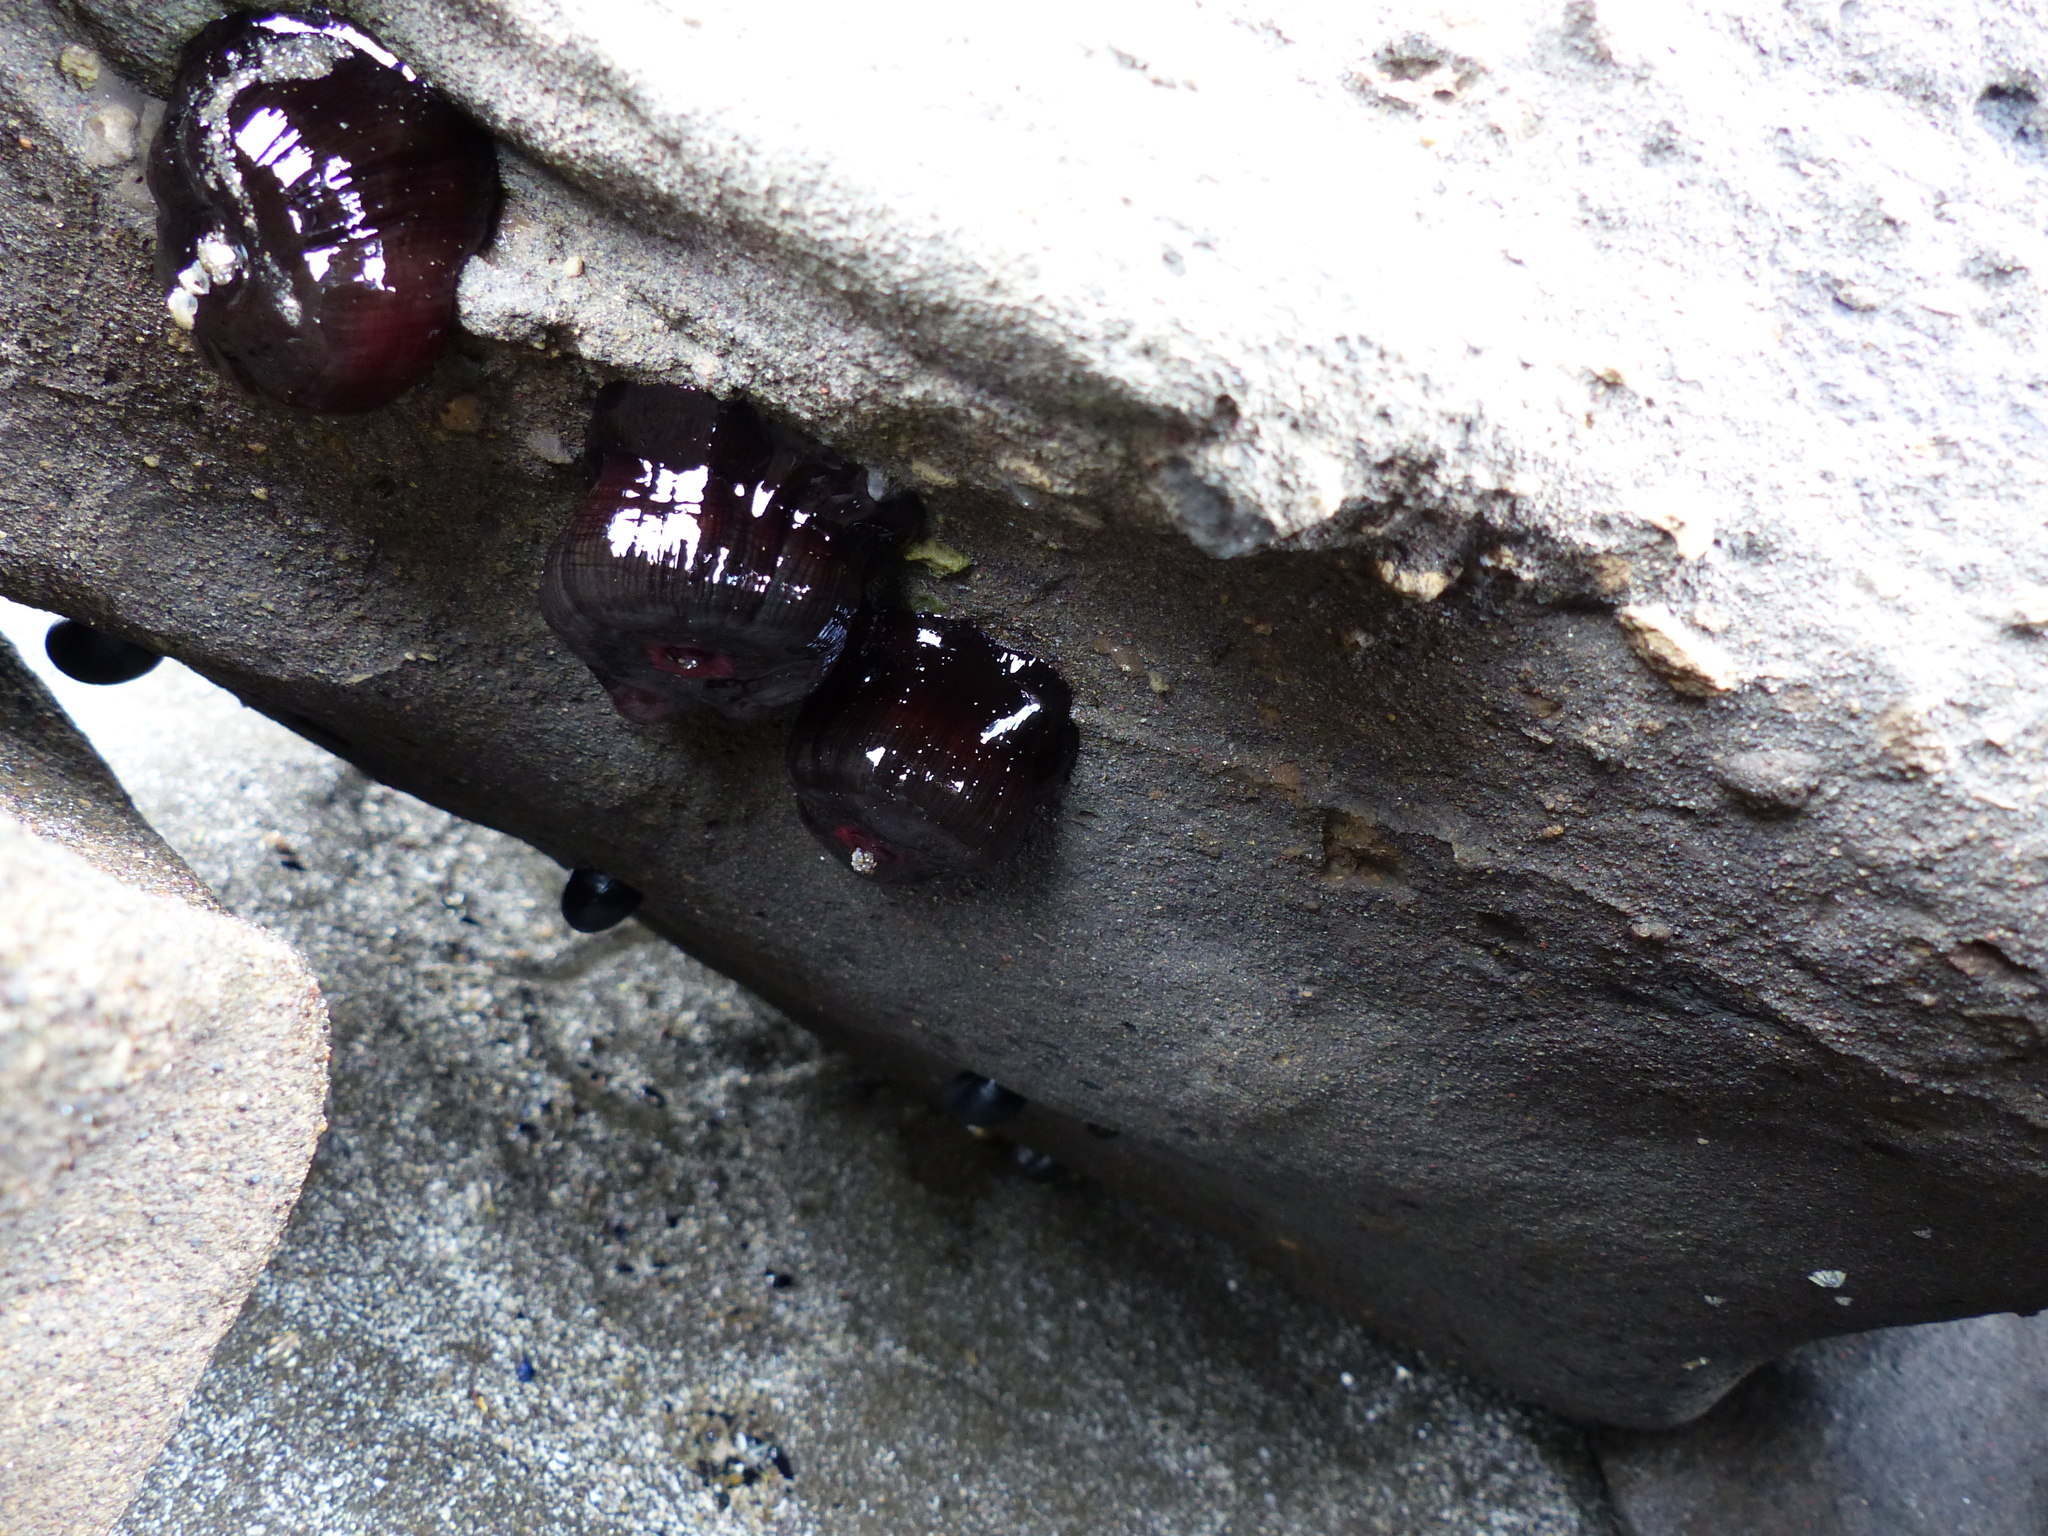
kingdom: Animalia
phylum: Cnidaria
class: Anthozoa
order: Actiniaria
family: Actiniidae
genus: Actinia
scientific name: Actinia tenebrosa
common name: Waratah anemone
